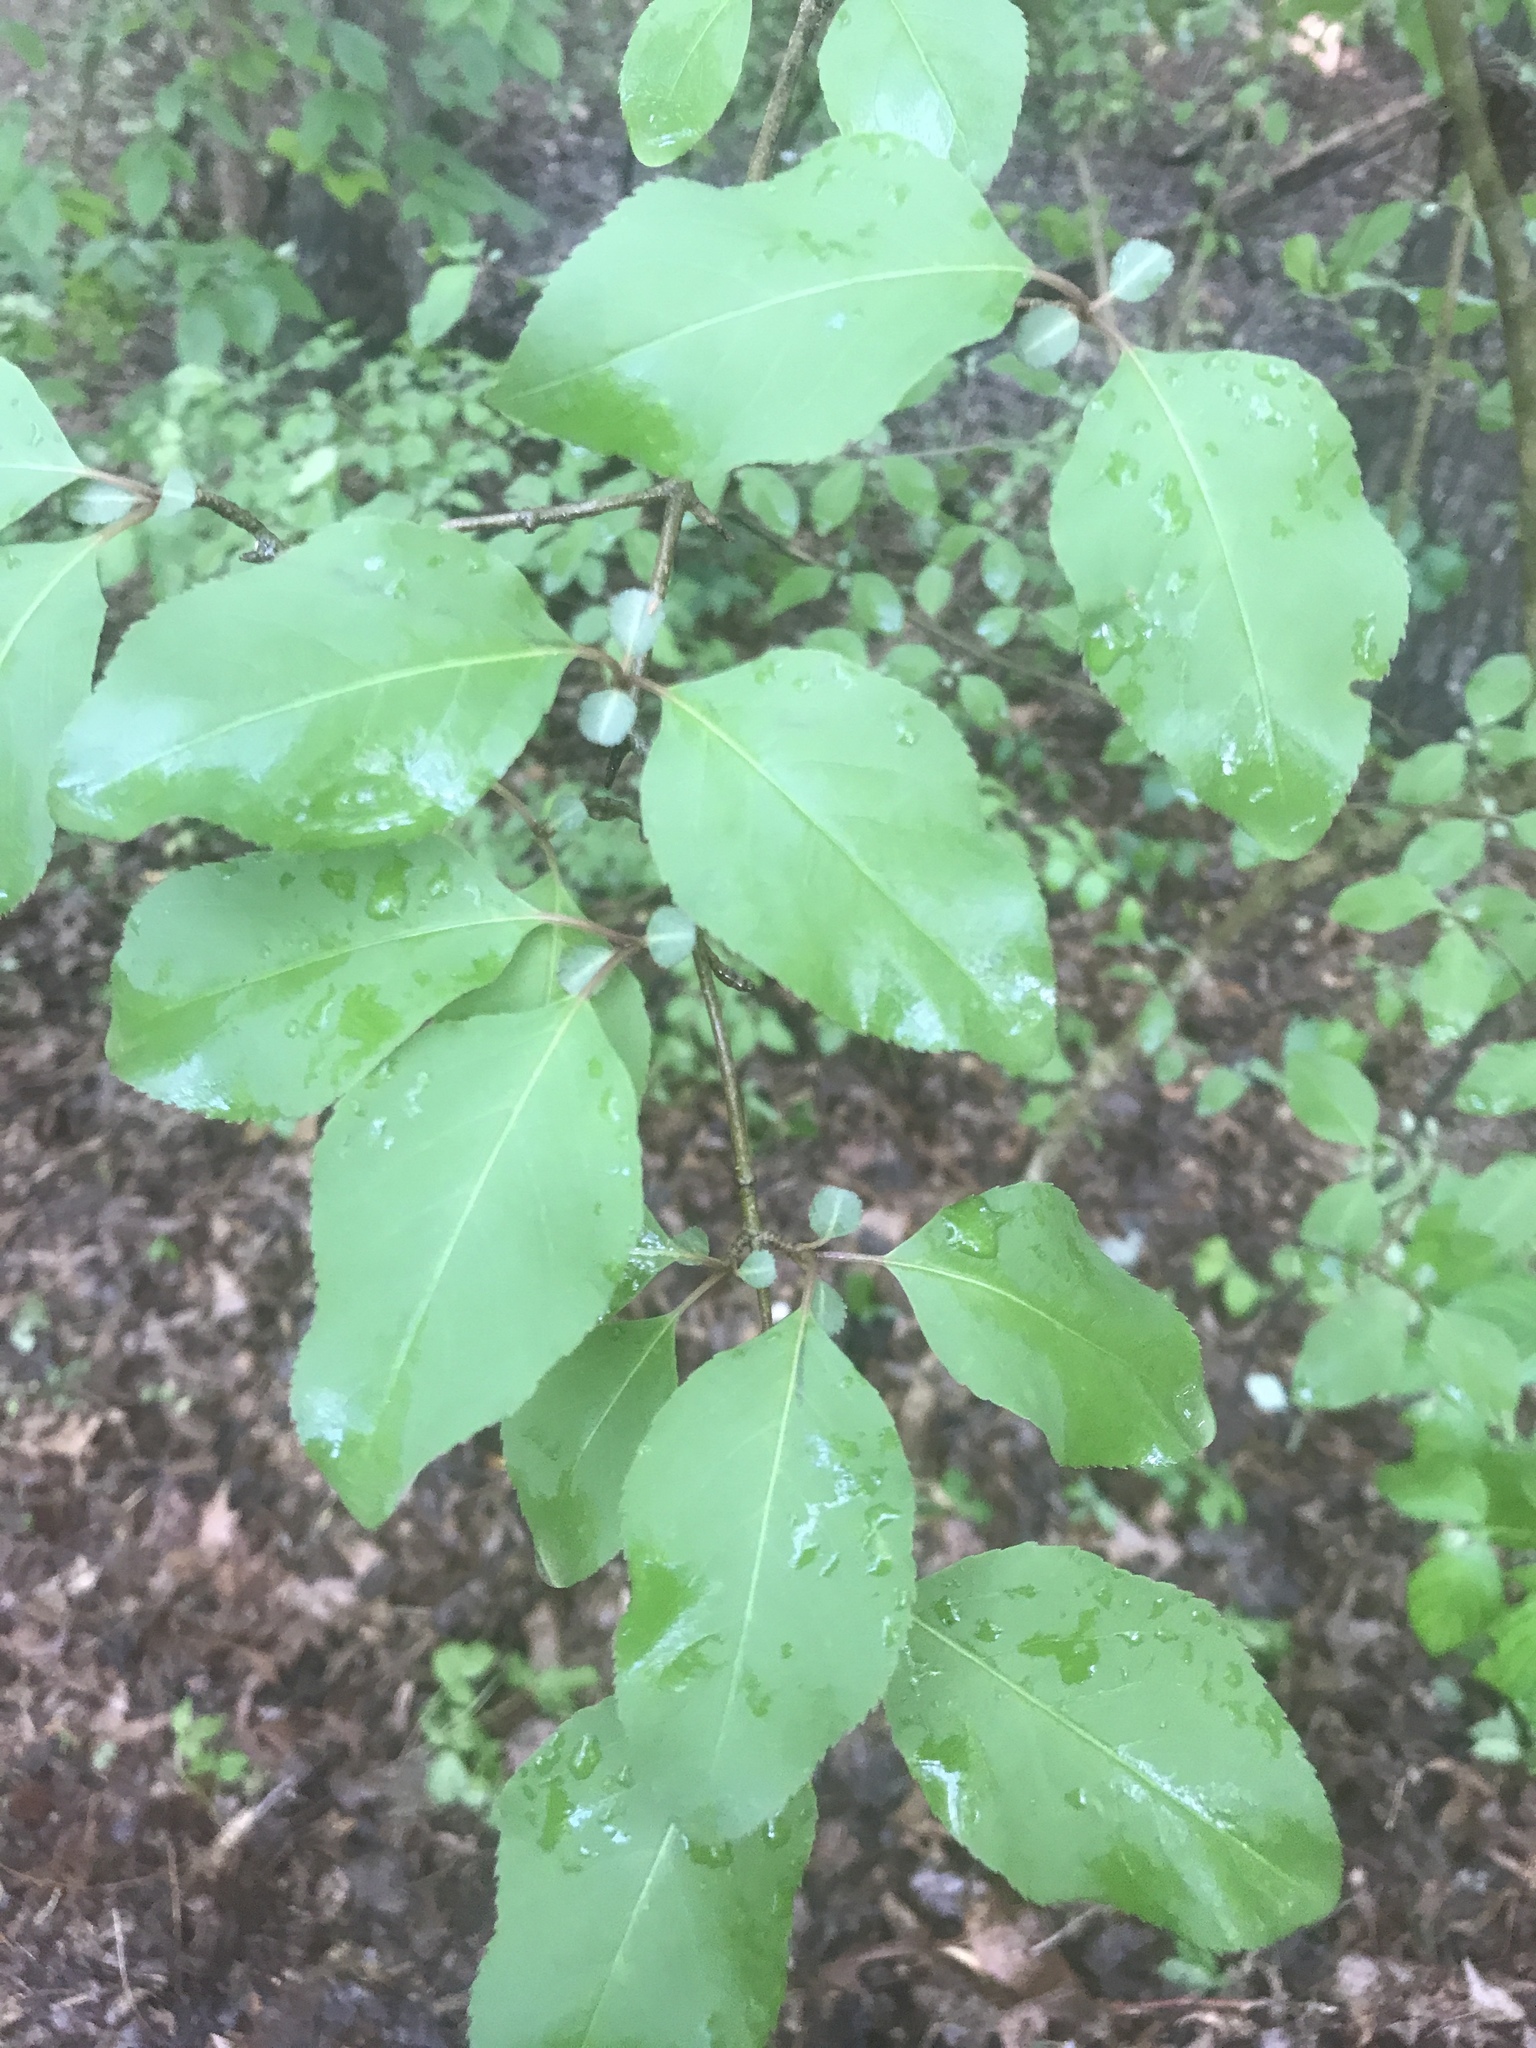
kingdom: Plantae
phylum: Tracheophyta
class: Magnoliopsida
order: Dipsacales
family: Viburnaceae
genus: Viburnum
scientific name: Viburnum prunifolium
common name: Black haw
